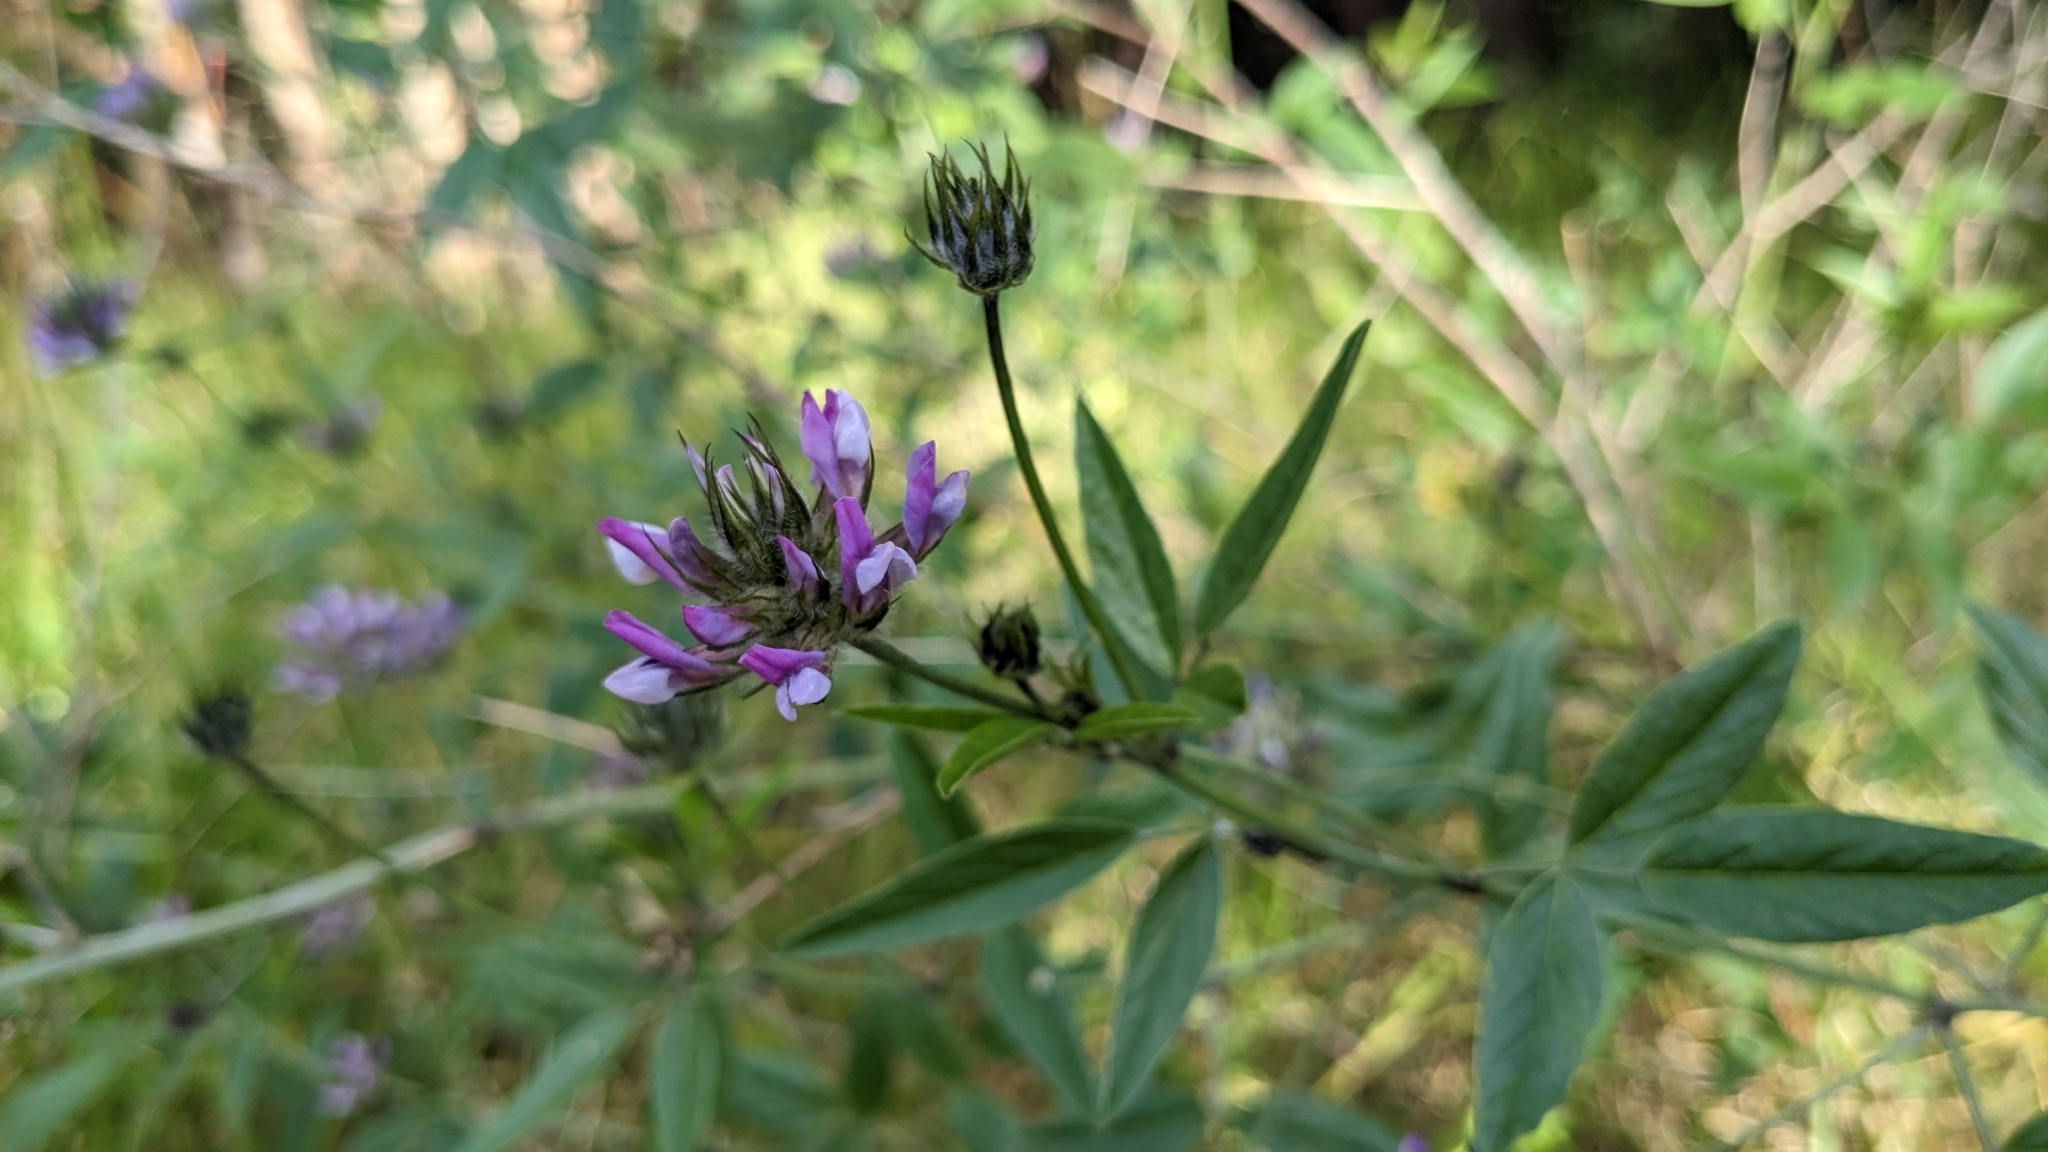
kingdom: Plantae
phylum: Tracheophyta
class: Magnoliopsida
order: Fabales
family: Fabaceae
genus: Bituminaria
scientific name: Bituminaria bituminosa
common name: Arabian pea
